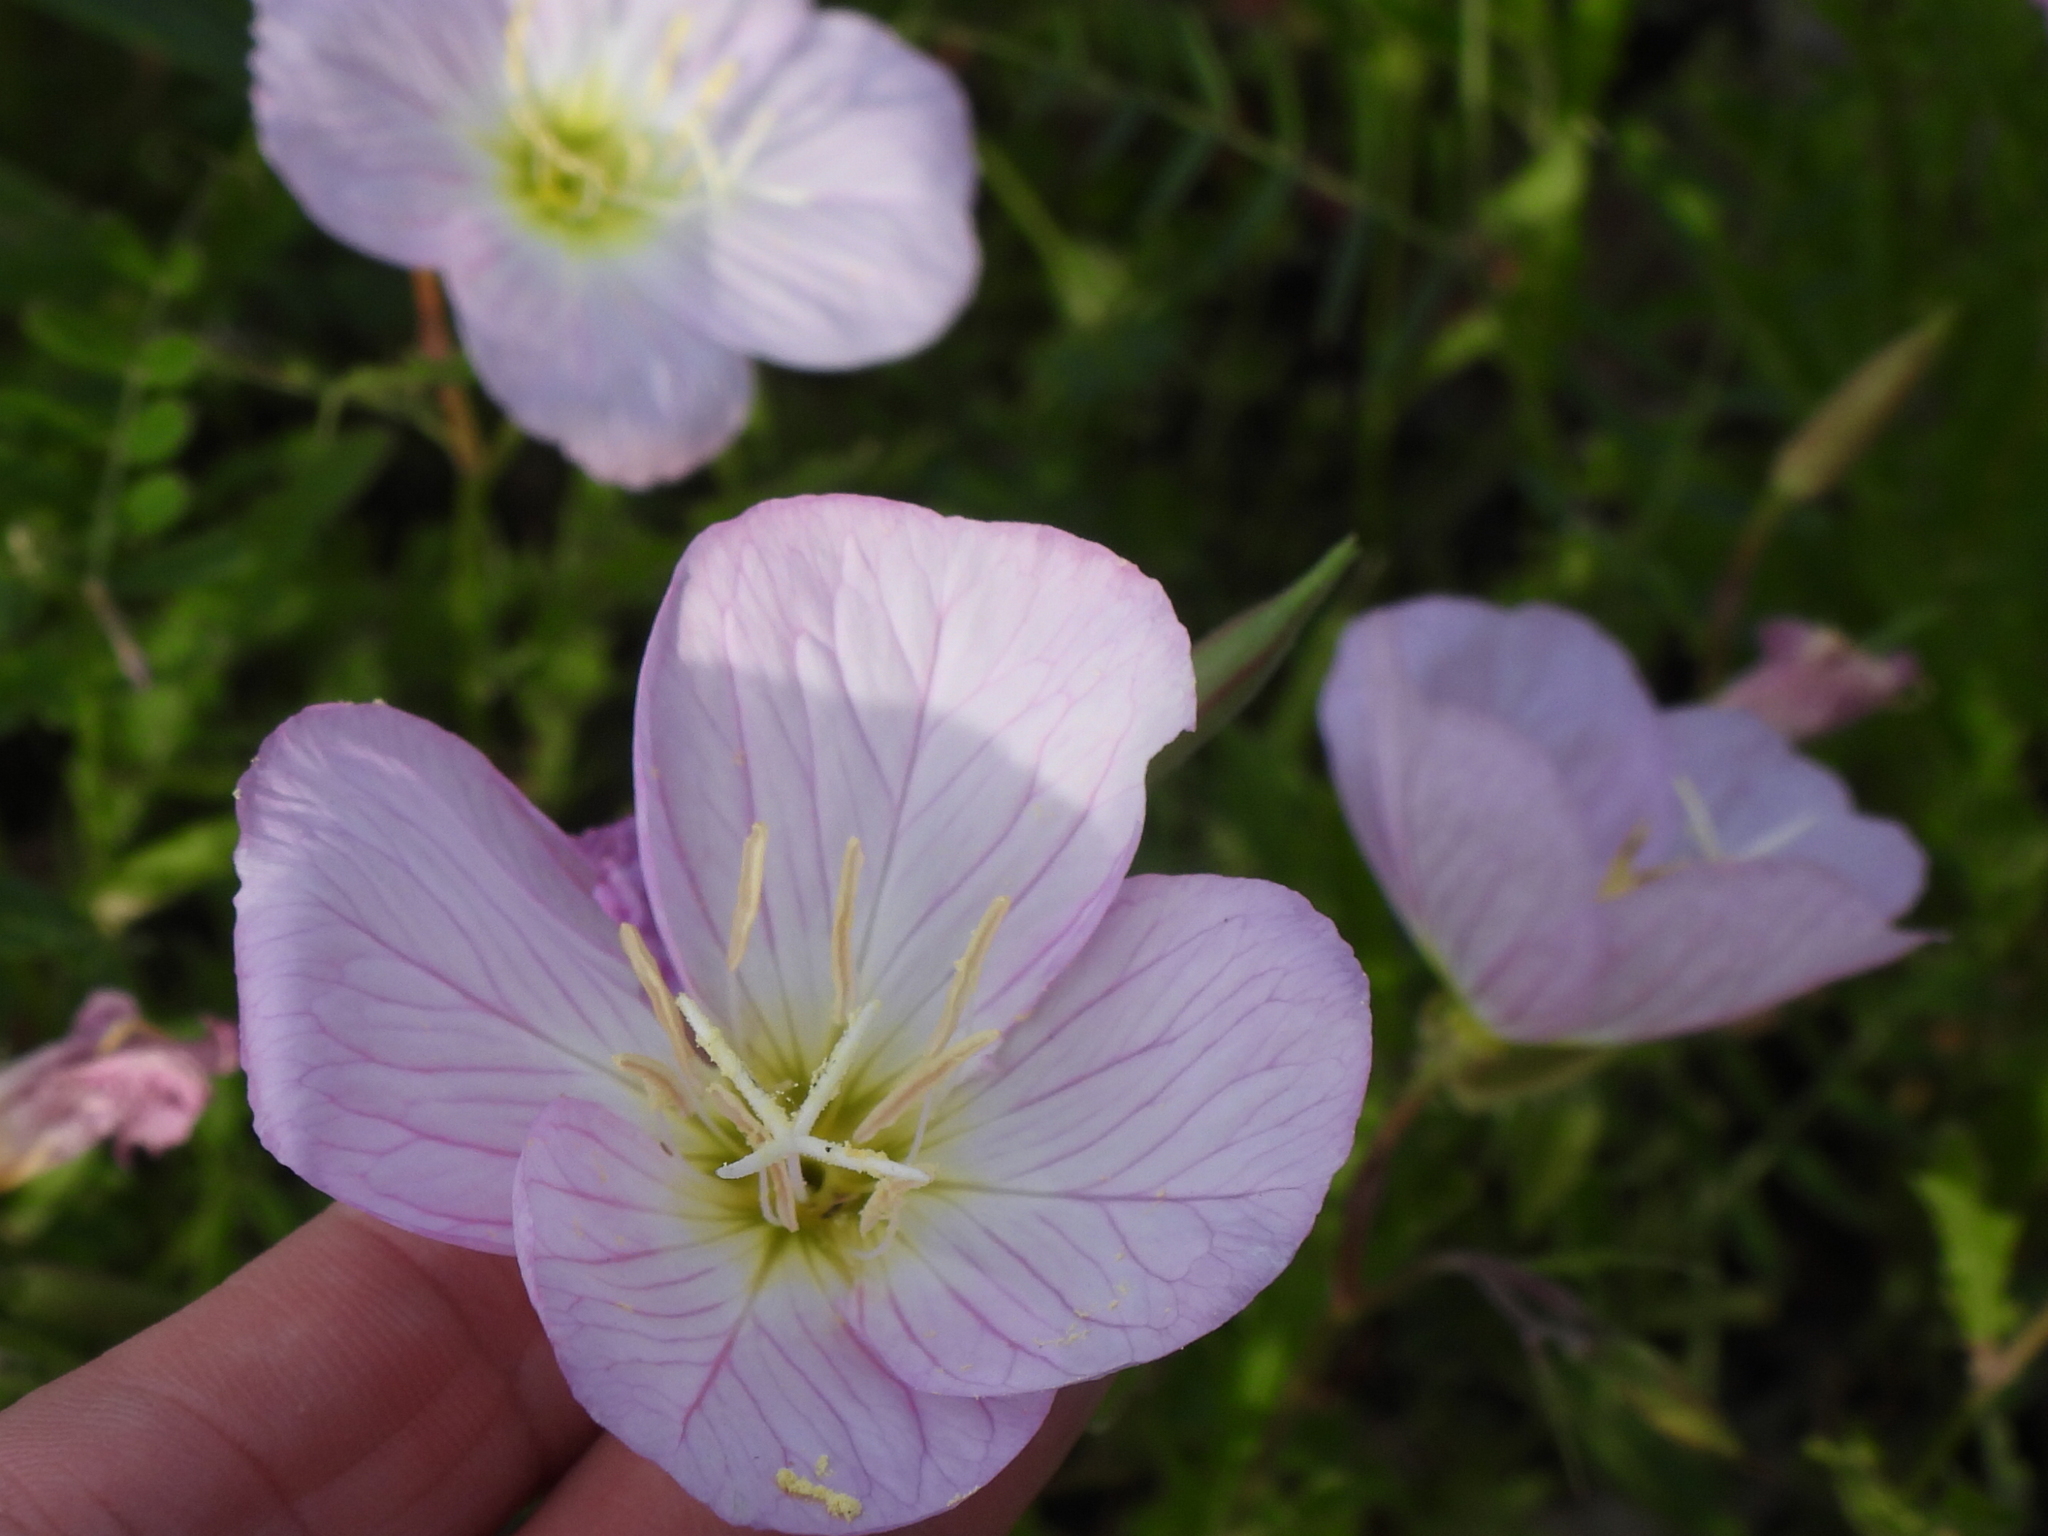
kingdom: Plantae
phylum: Tracheophyta
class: Magnoliopsida
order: Myrtales
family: Onagraceae
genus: Oenothera
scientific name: Oenothera speciosa
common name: White evening-primrose
